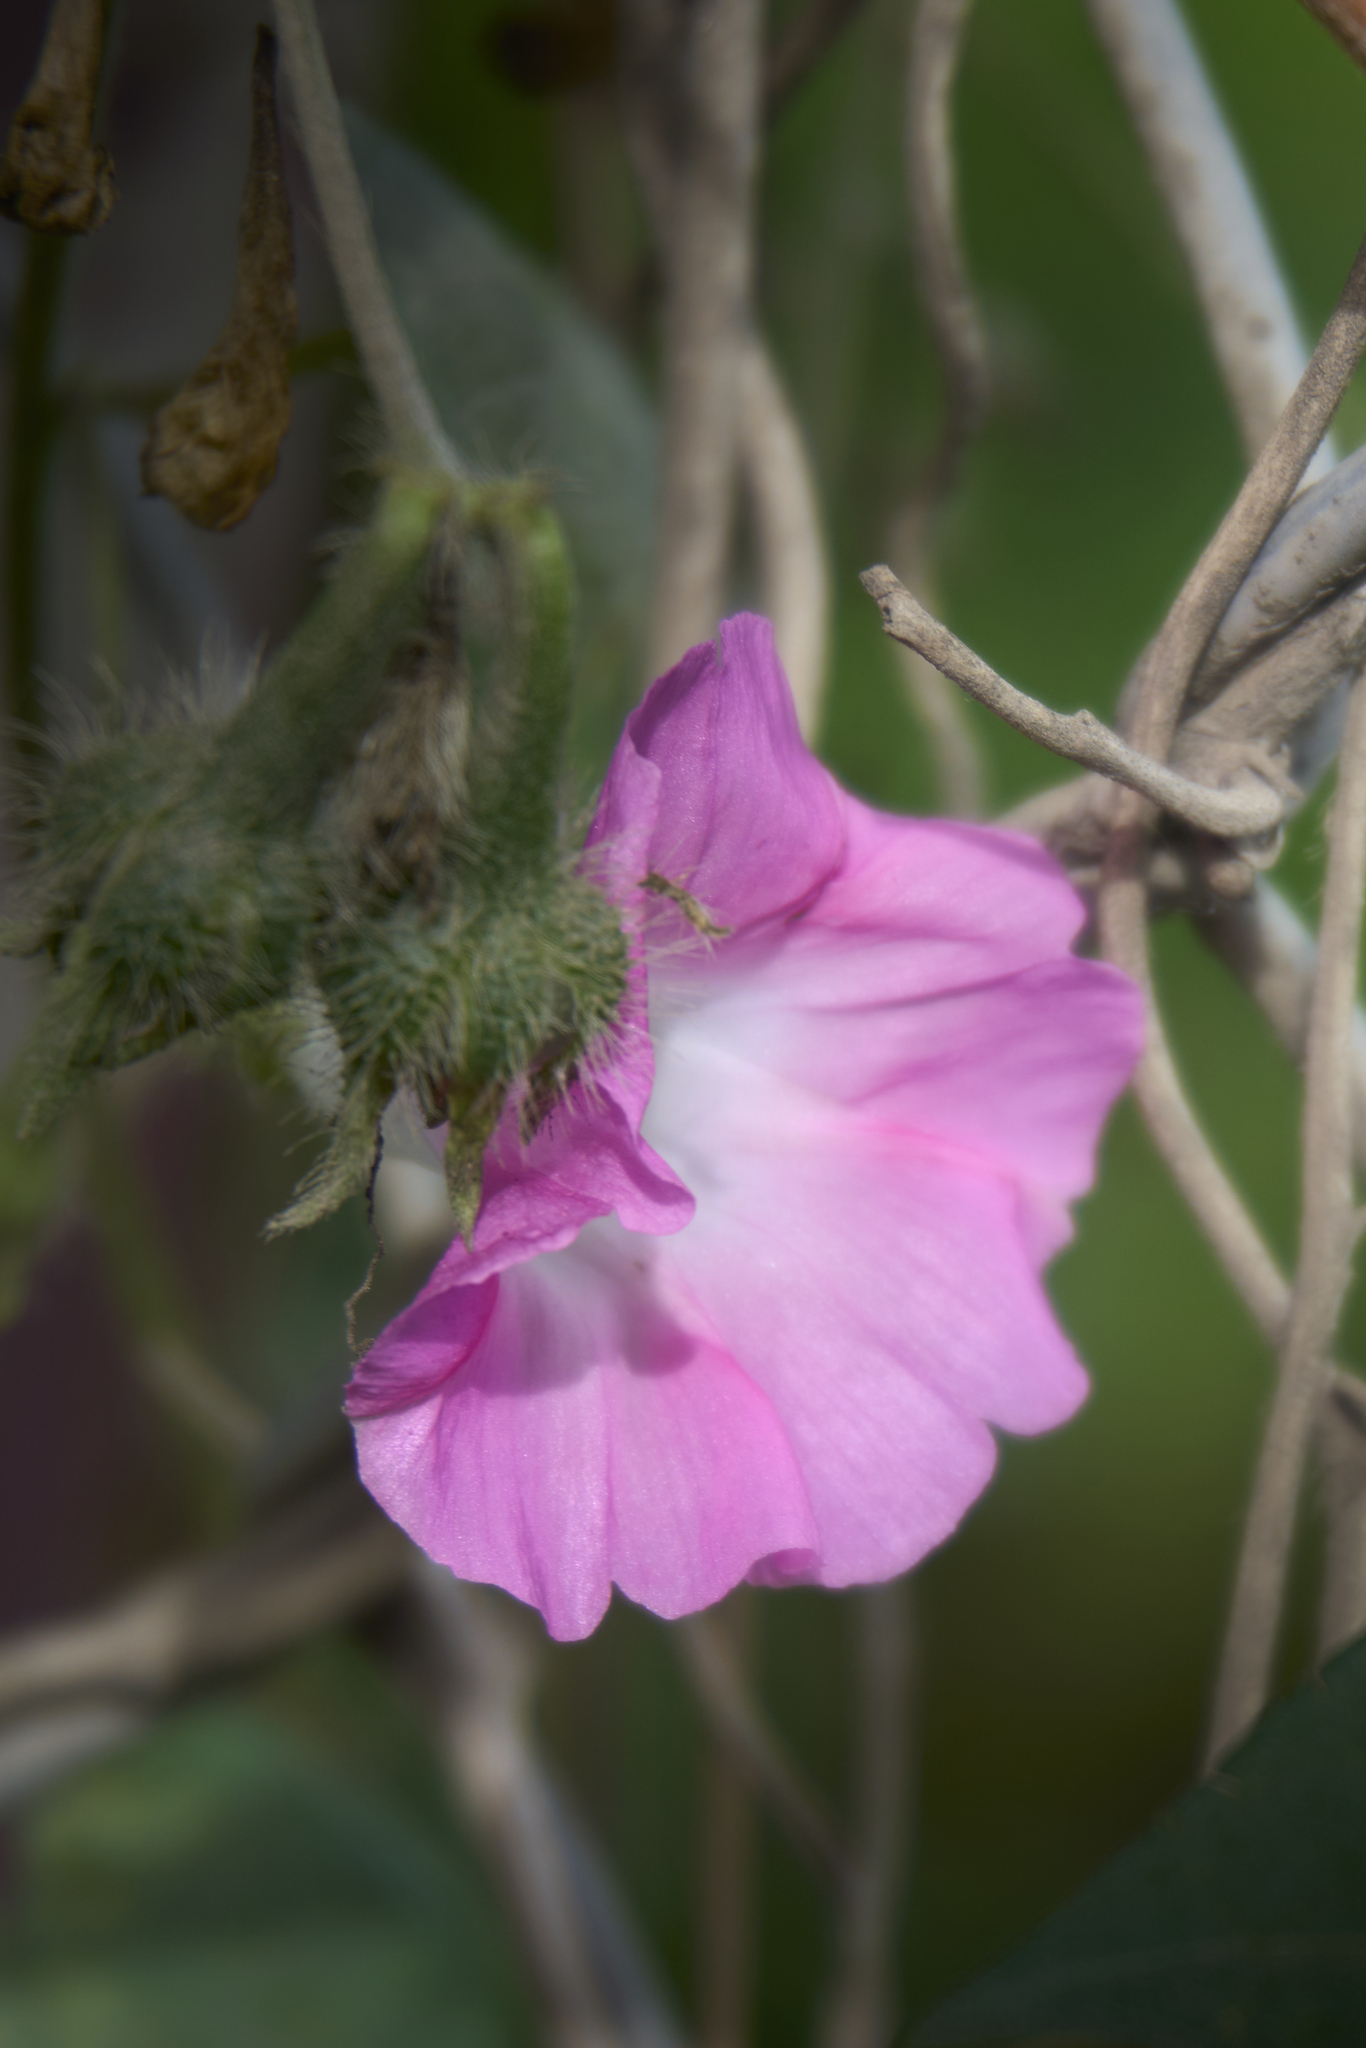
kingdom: Plantae
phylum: Tracheophyta
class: Magnoliopsida
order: Solanales
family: Convolvulaceae
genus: Ipomoea
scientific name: Ipomoea purpurea
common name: Common morning-glory
